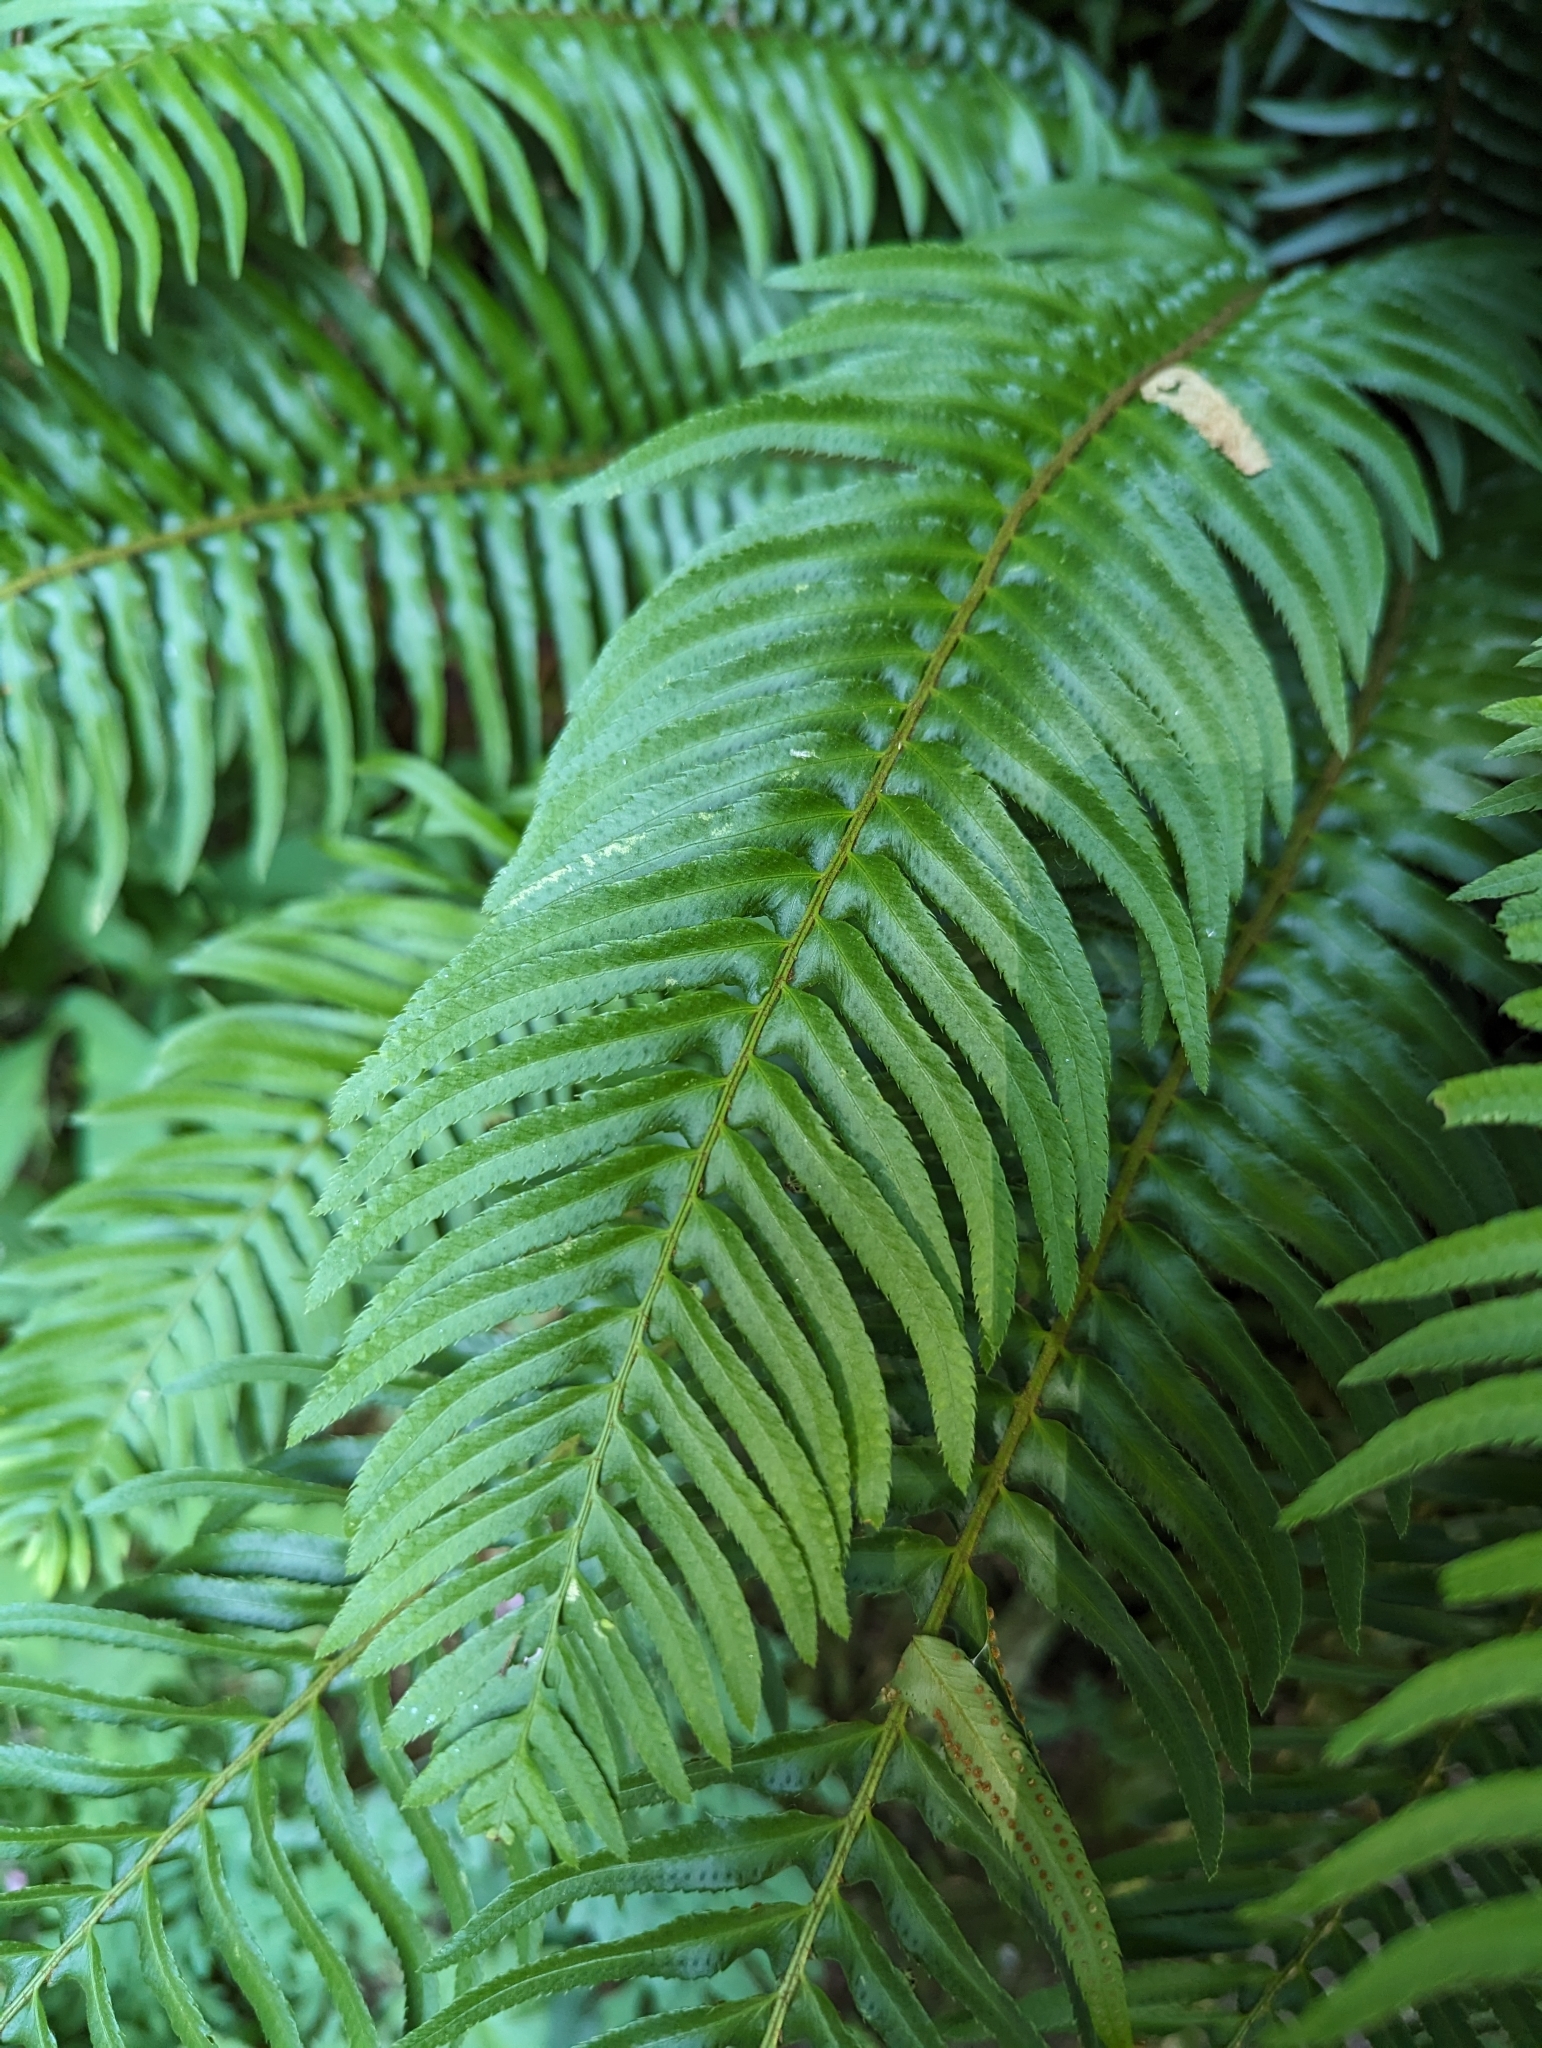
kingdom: Plantae
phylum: Tracheophyta
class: Polypodiopsida
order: Polypodiales
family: Dryopteridaceae
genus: Polystichum
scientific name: Polystichum munitum
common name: Western sword-fern
